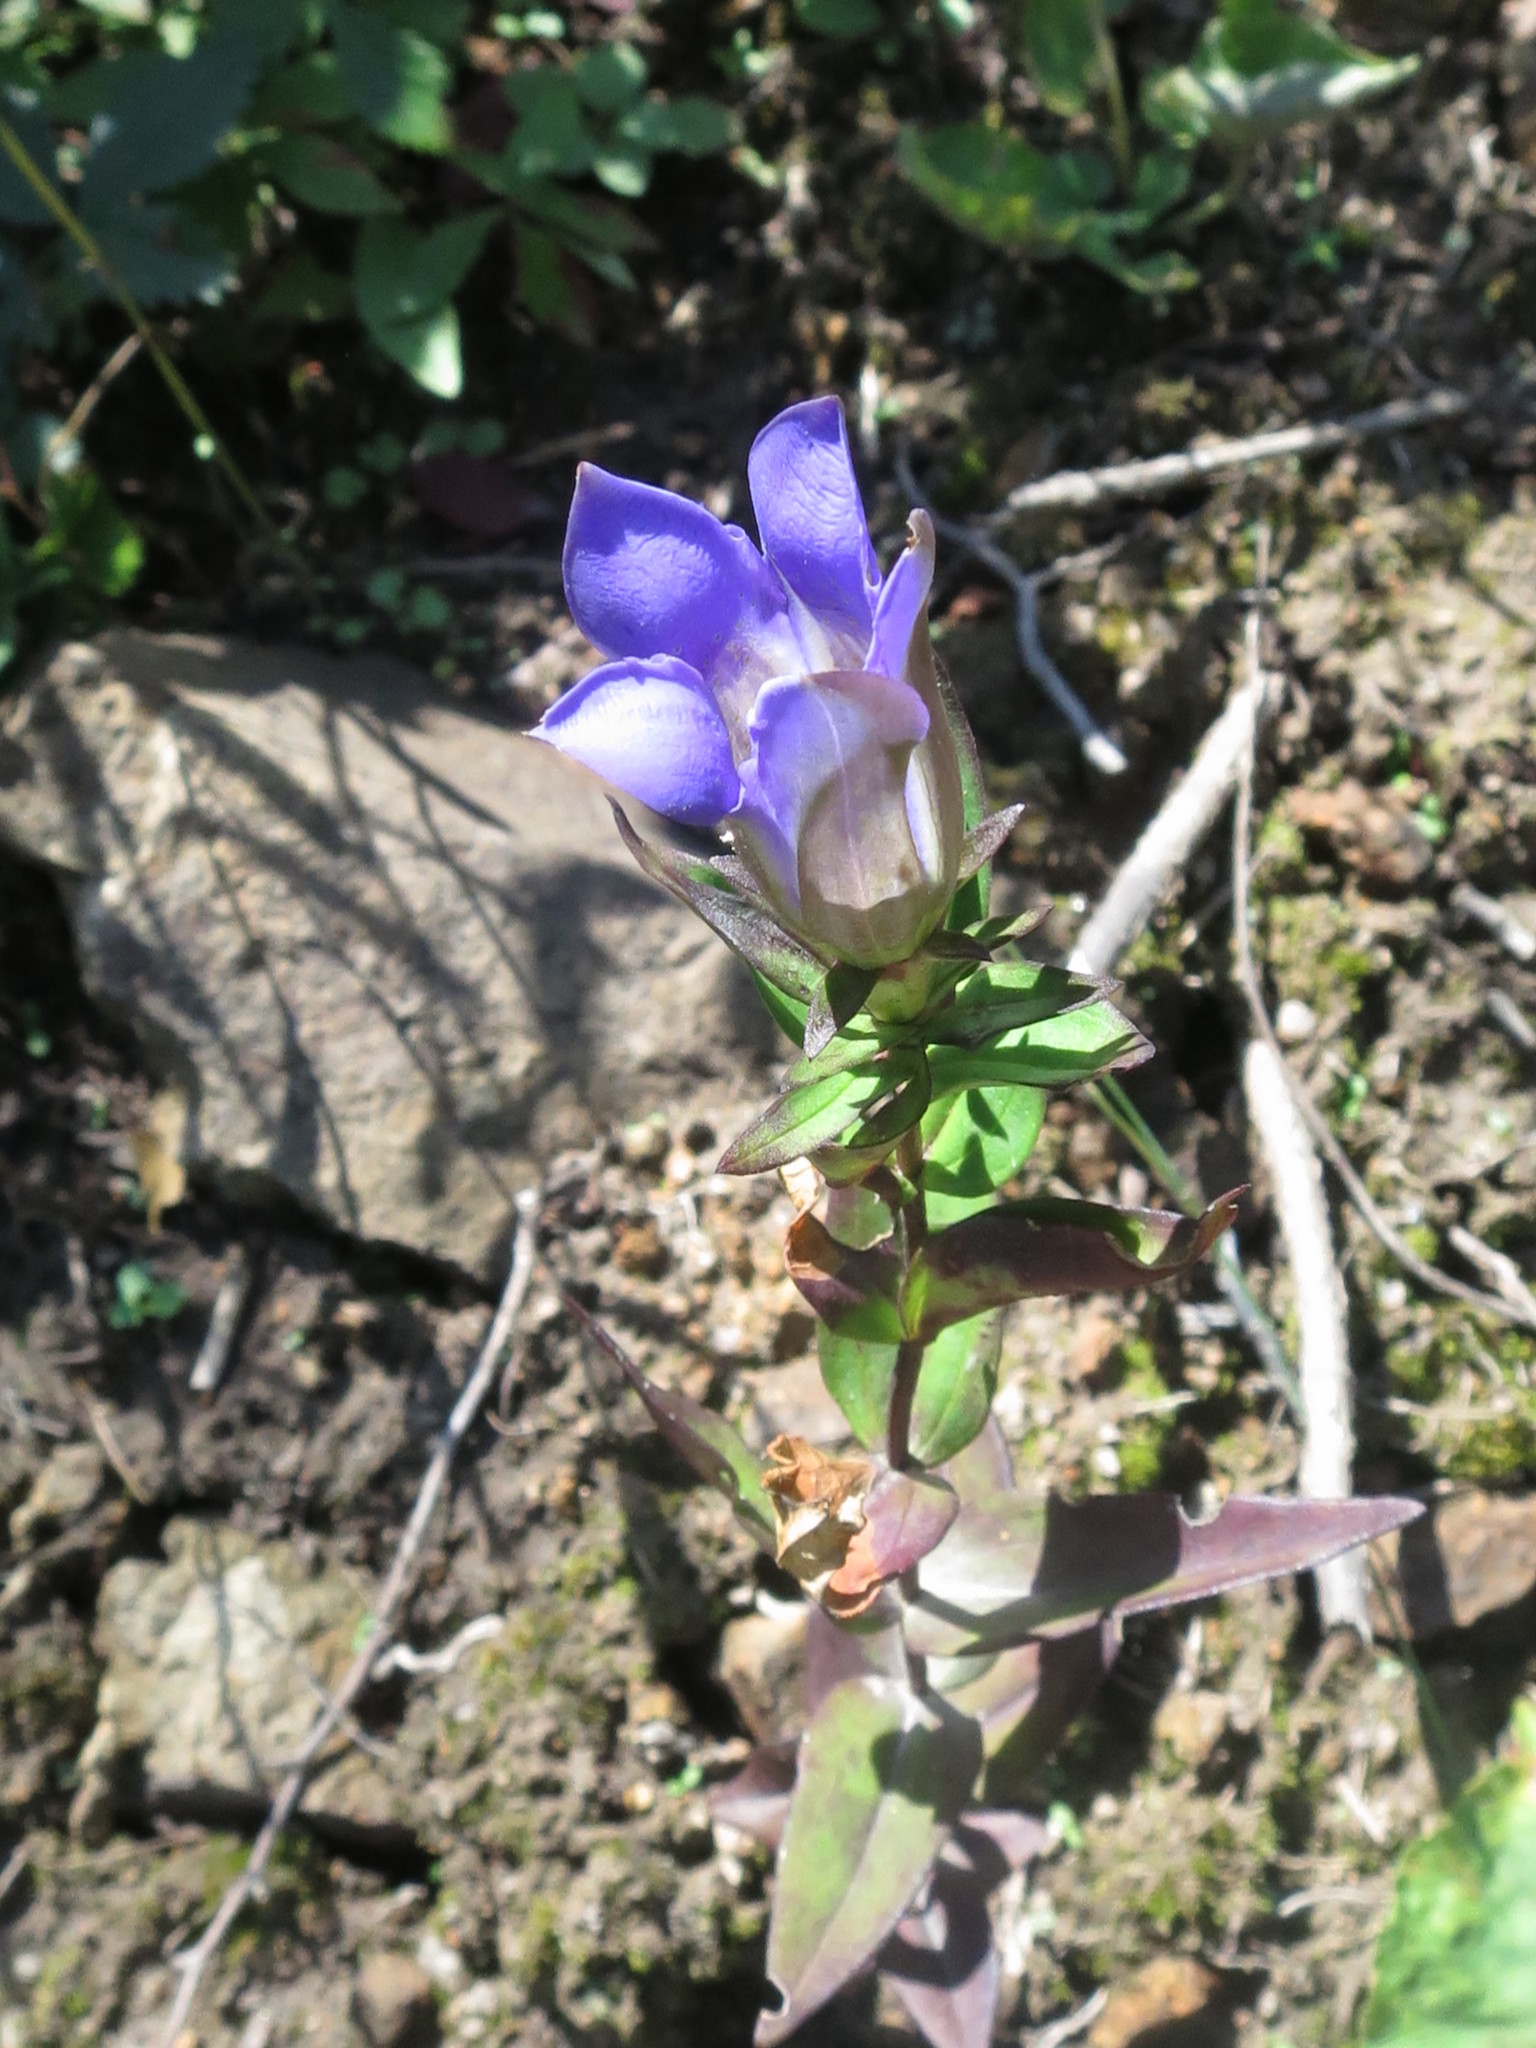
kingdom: Plantae
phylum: Tracheophyta
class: Magnoliopsida
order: Gentianales
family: Gentianaceae
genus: Gentiana
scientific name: Gentiana scabra
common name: Scabrous gentian
